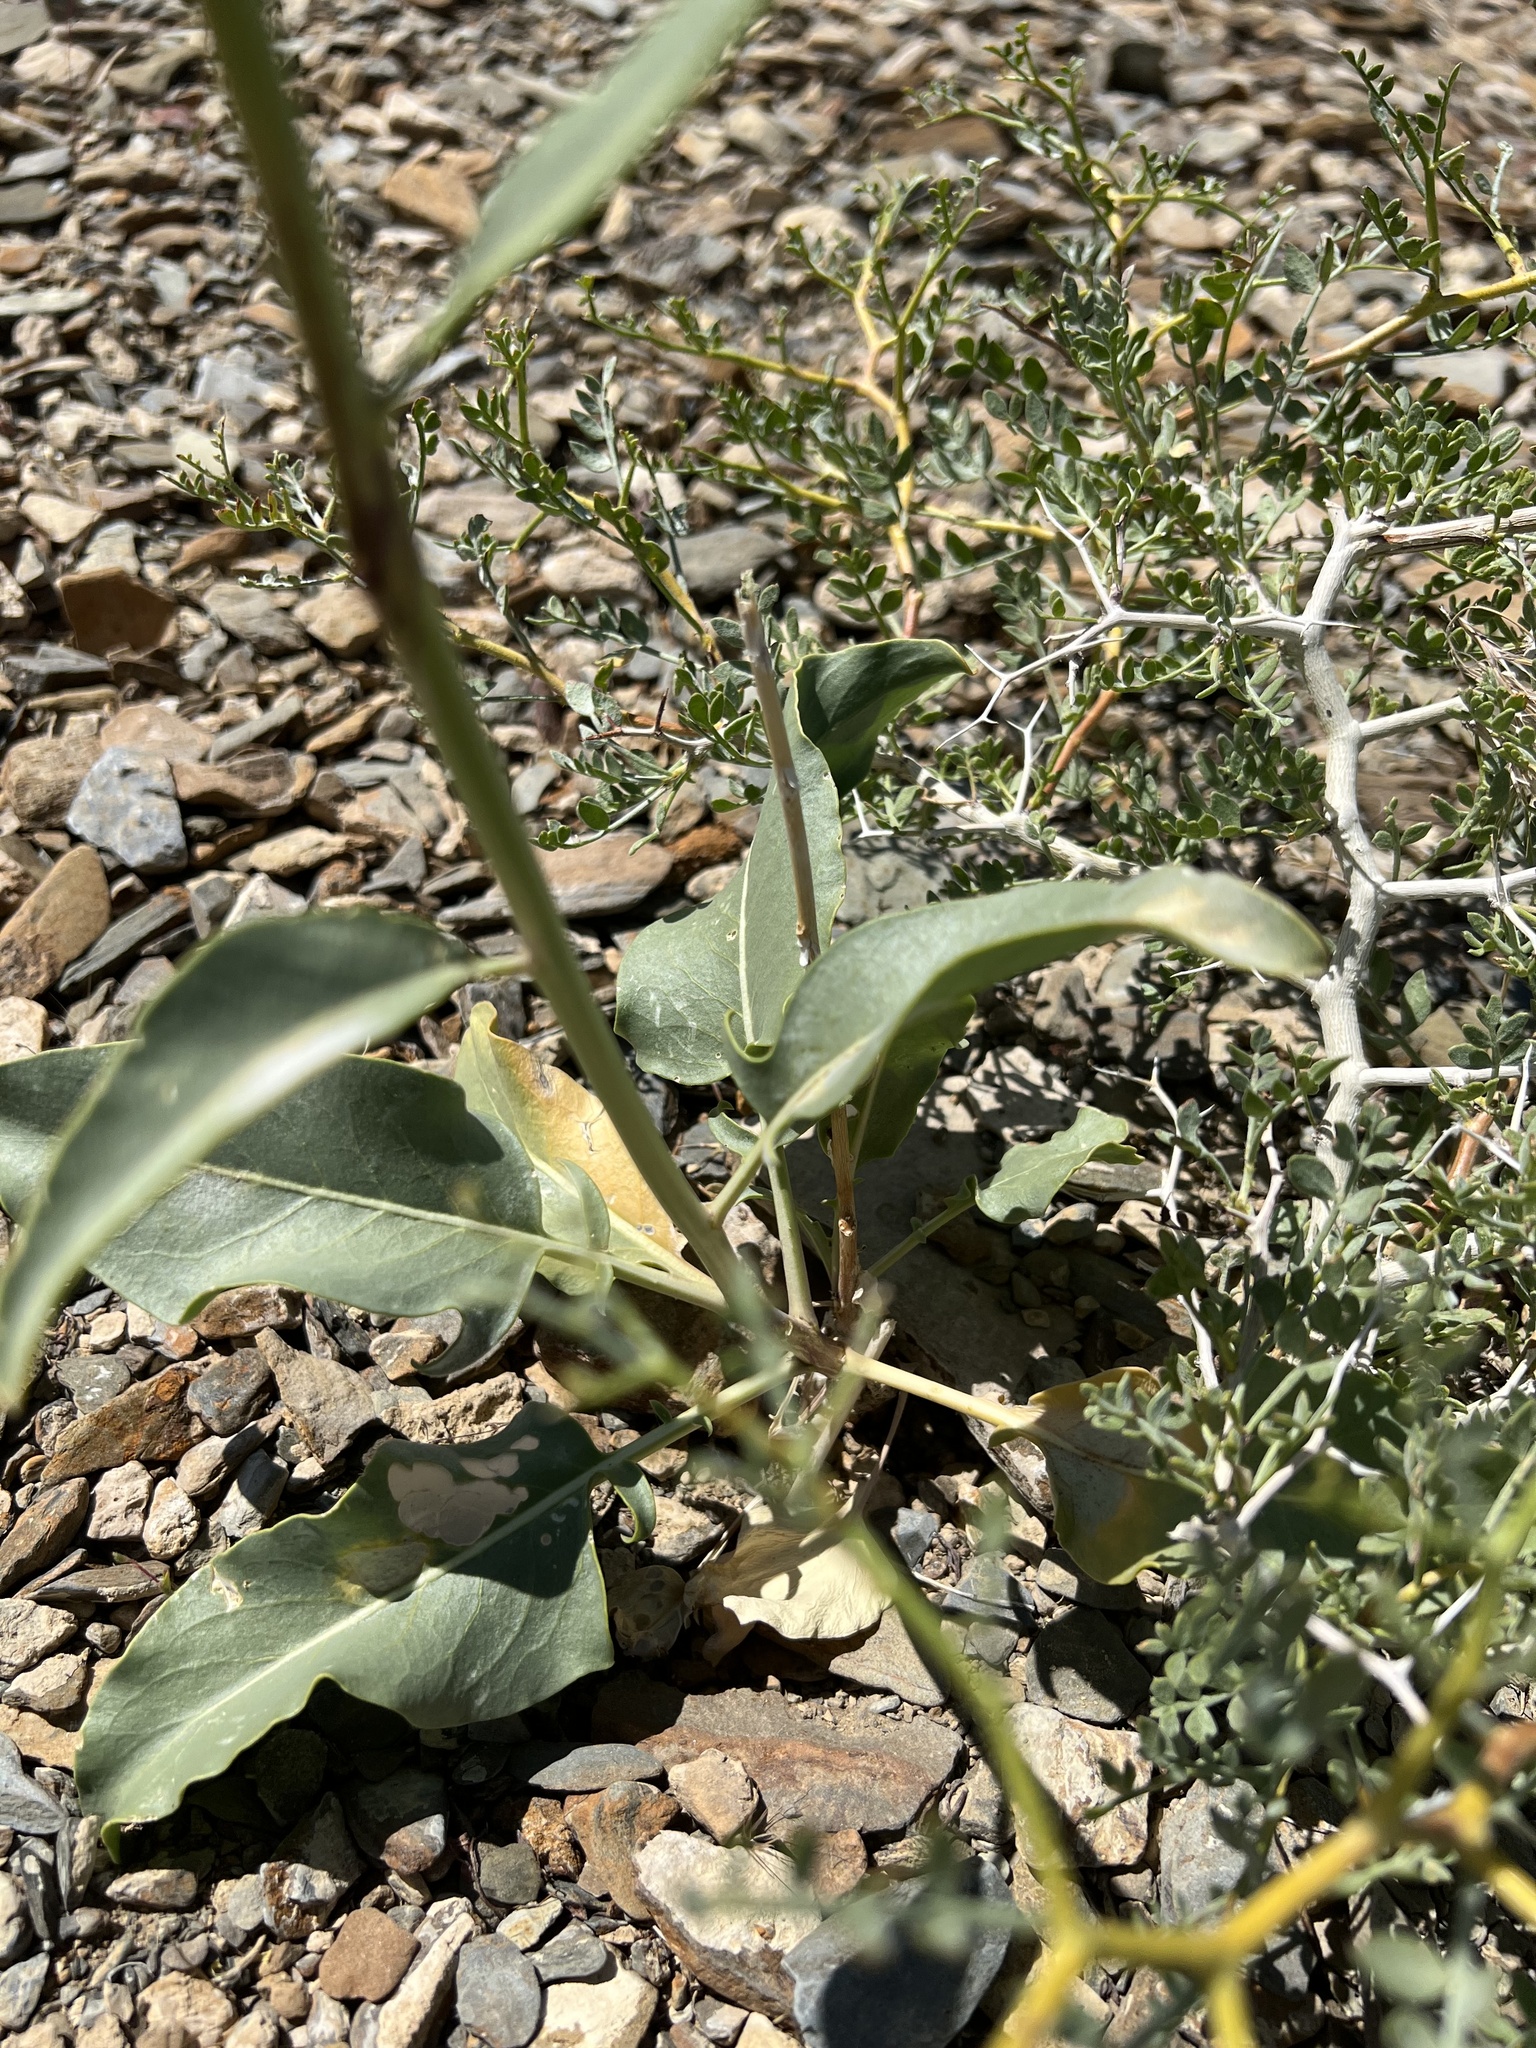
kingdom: Plantae
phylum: Tracheophyta
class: Magnoliopsida
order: Brassicales
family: Brassicaceae
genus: Stanleya
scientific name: Stanleya elata
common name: Panamint prince's plume
